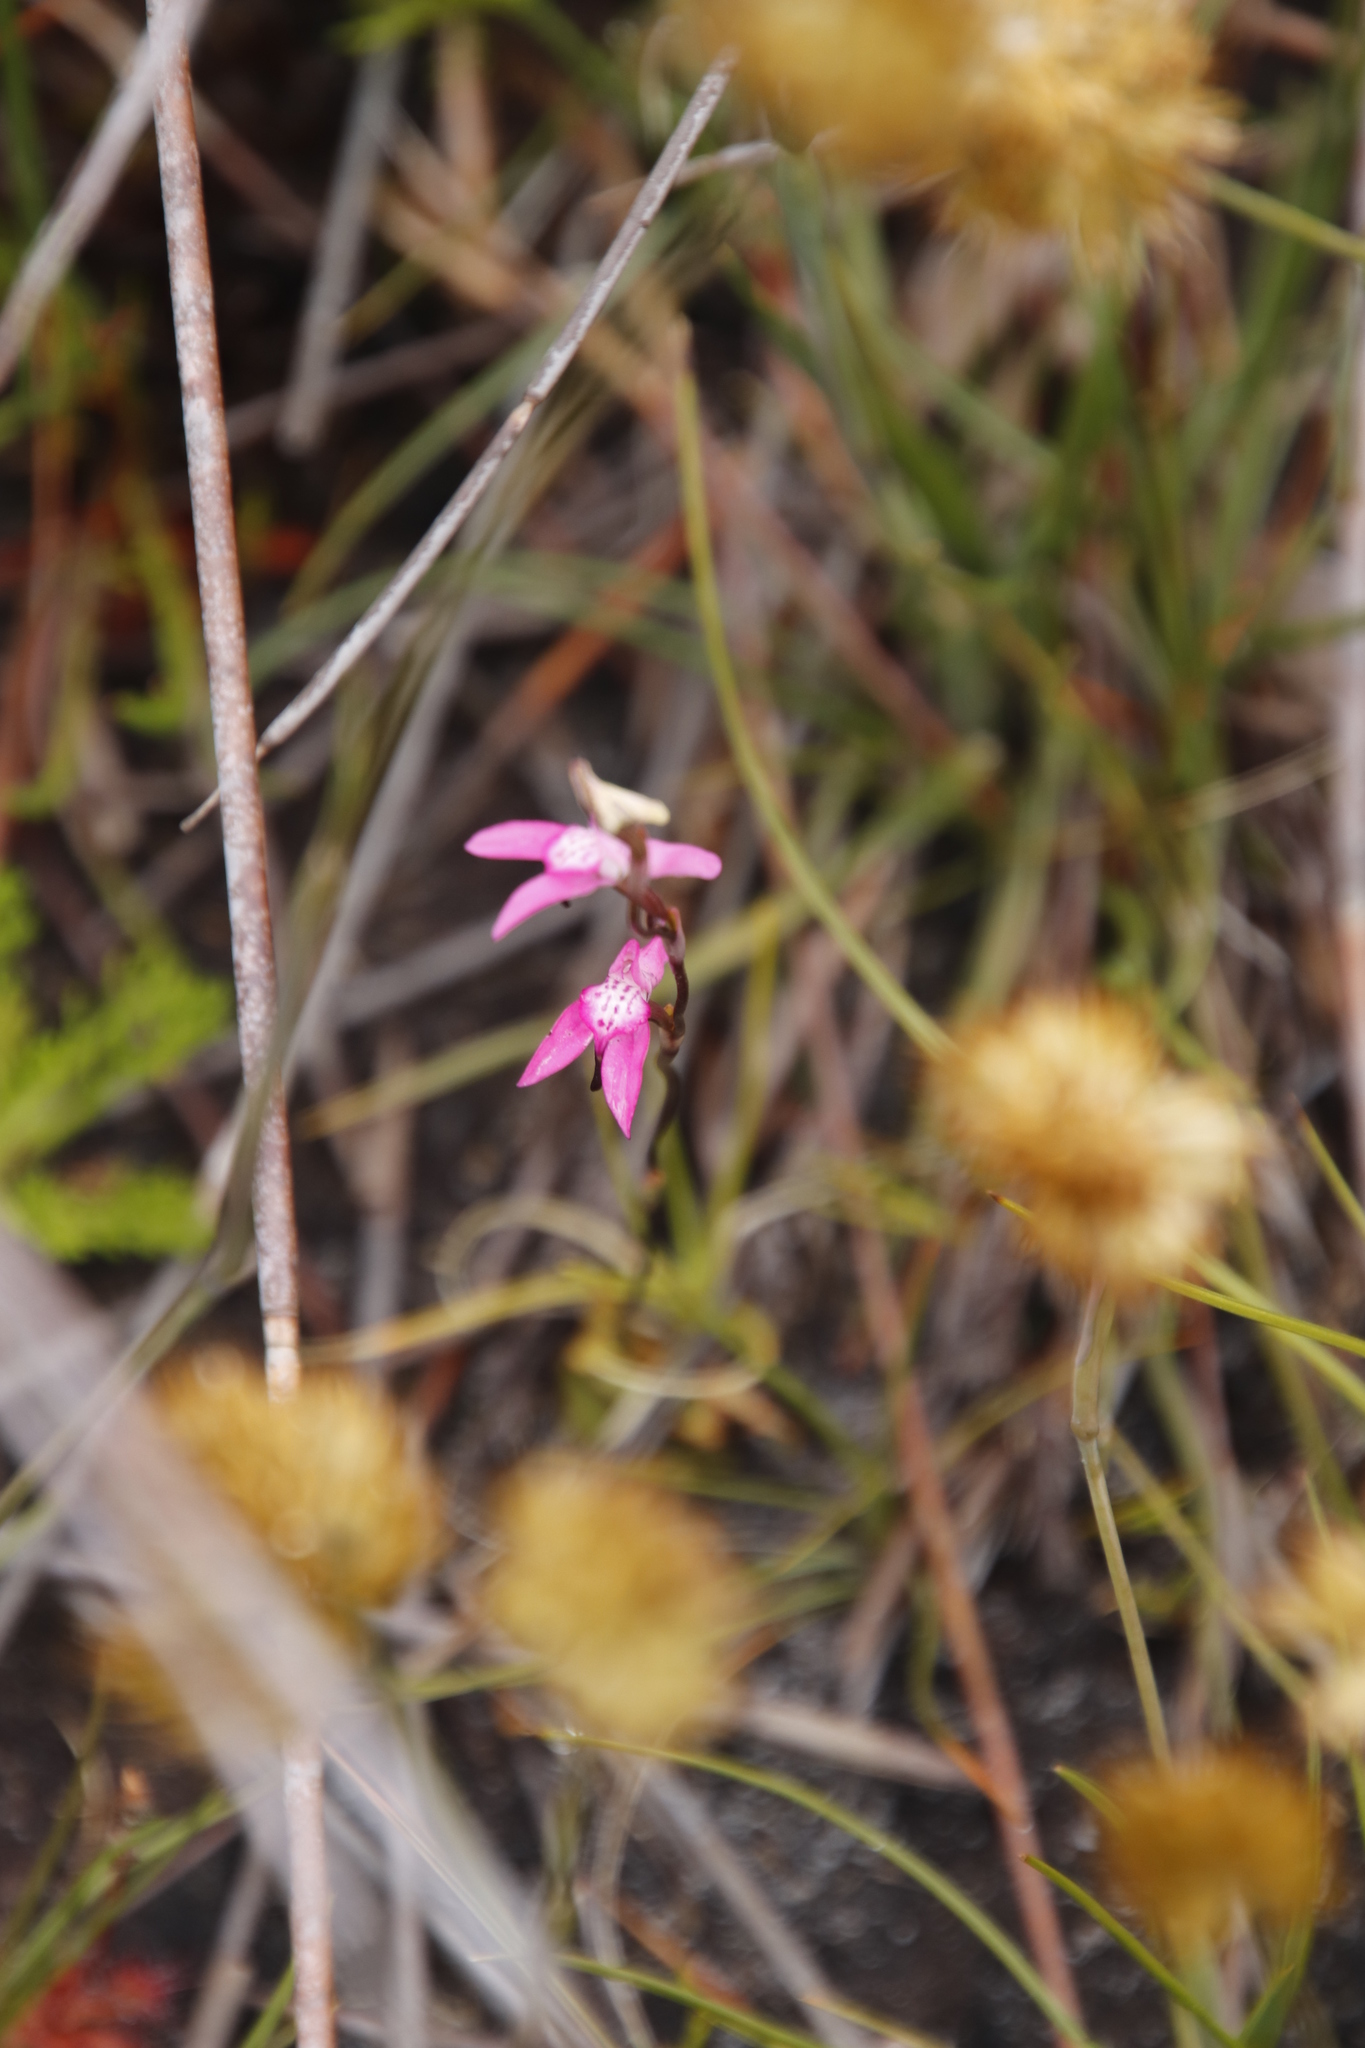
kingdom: Plantae
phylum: Tracheophyta
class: Liliopsida
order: Asparagales
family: Orchidaceae
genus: Disa
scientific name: Disa inflexa
